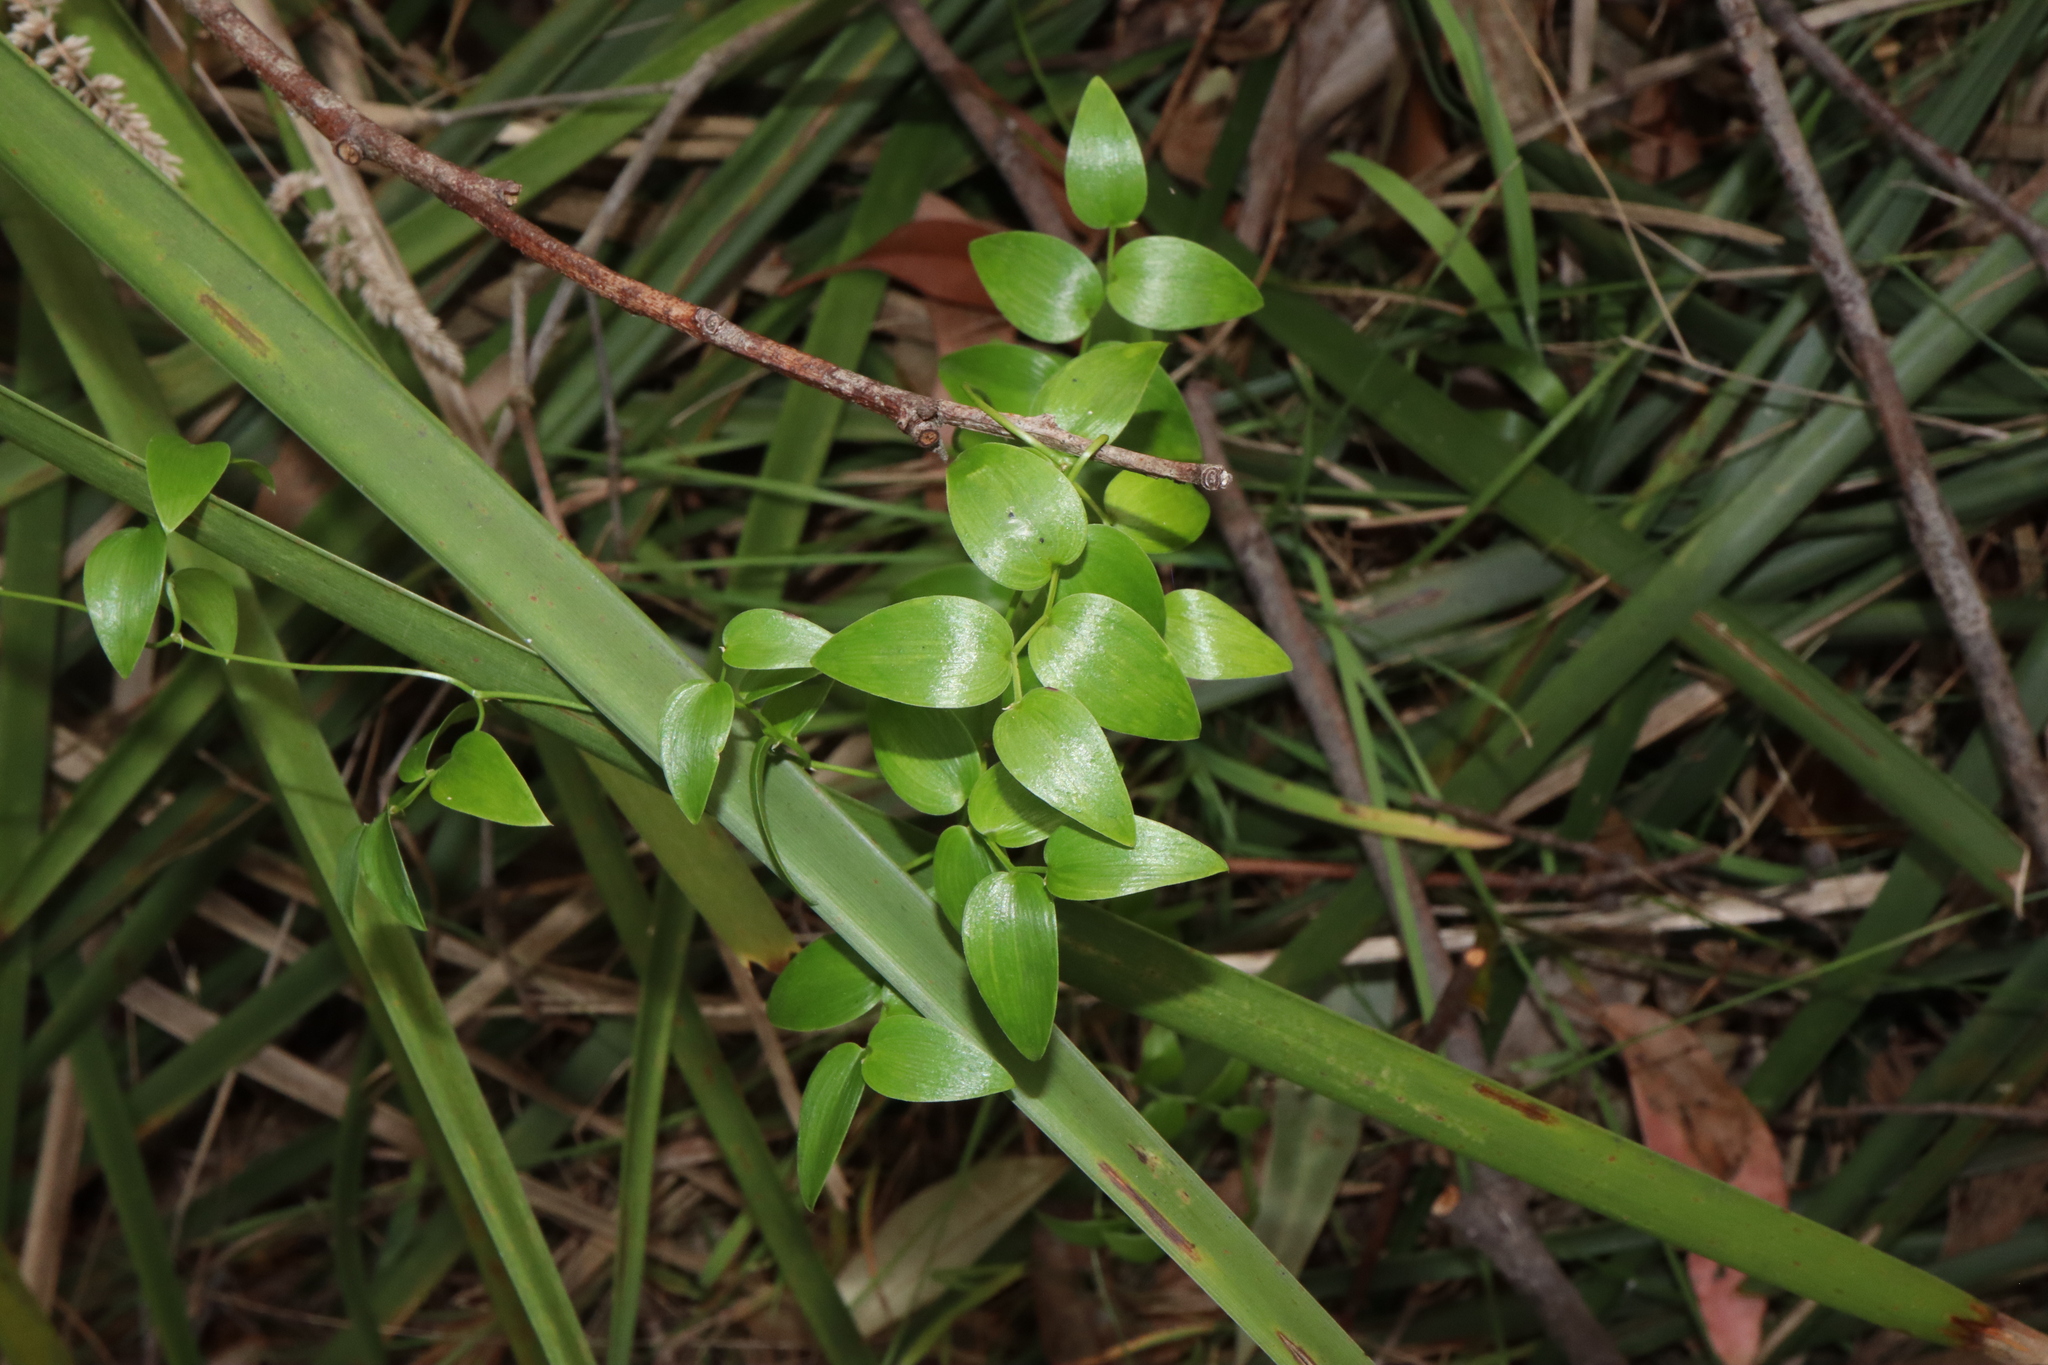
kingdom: Plantae
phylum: Tracheophyta
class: Liliopsida
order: Asparagales
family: Asparagaceae
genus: Asparagus
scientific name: Asparagus asparagoides
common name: African asparagus fern
